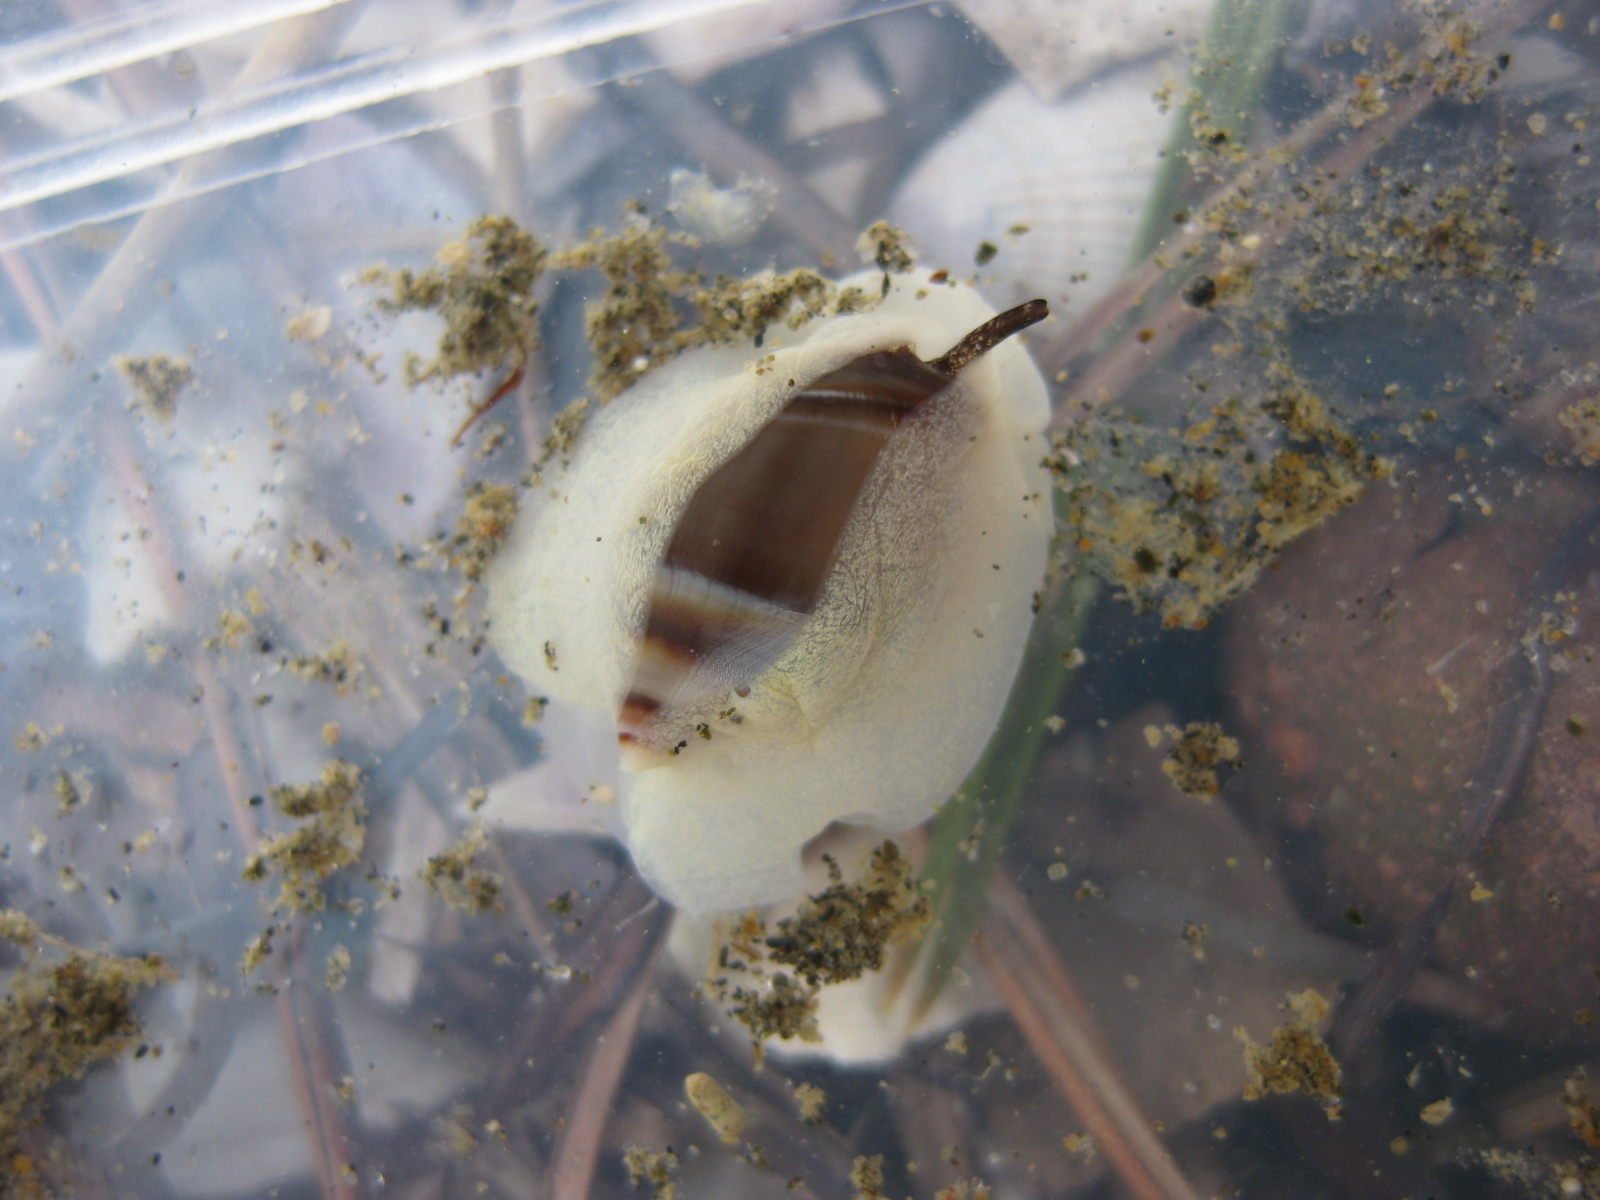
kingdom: Animalia
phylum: Mollusca
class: Gastropoda
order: Neogastropoda
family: Ancillariidae
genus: Amalda
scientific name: Amalda depressa
